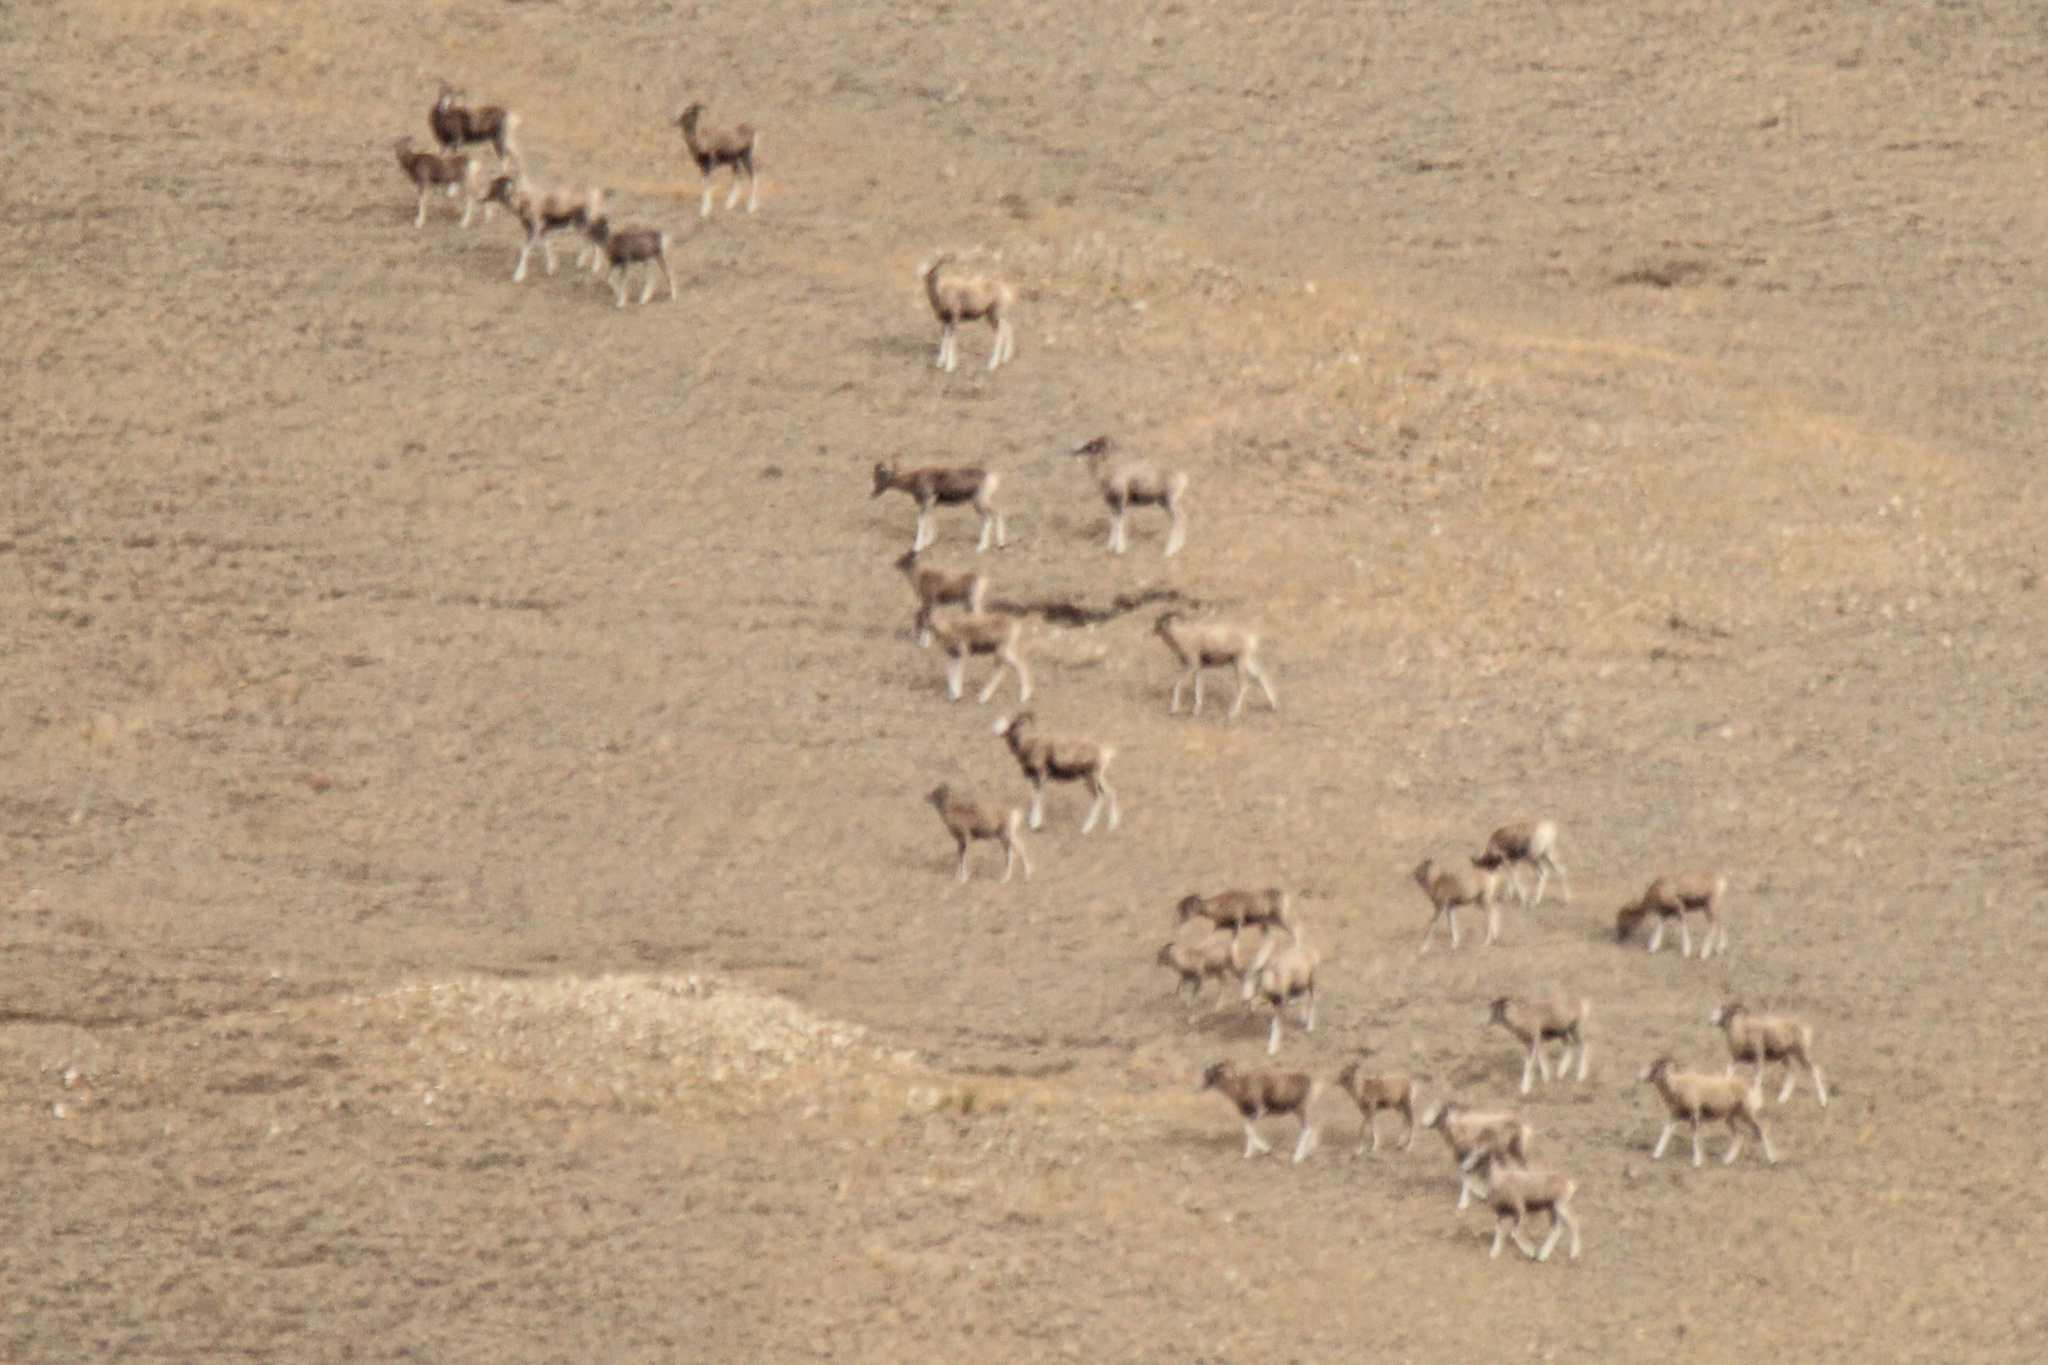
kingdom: Animalia
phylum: Chordata
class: Mammalia
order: Artiodactyla
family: Bovidae
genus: Ovis
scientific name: Ovis ammon
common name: Argali
